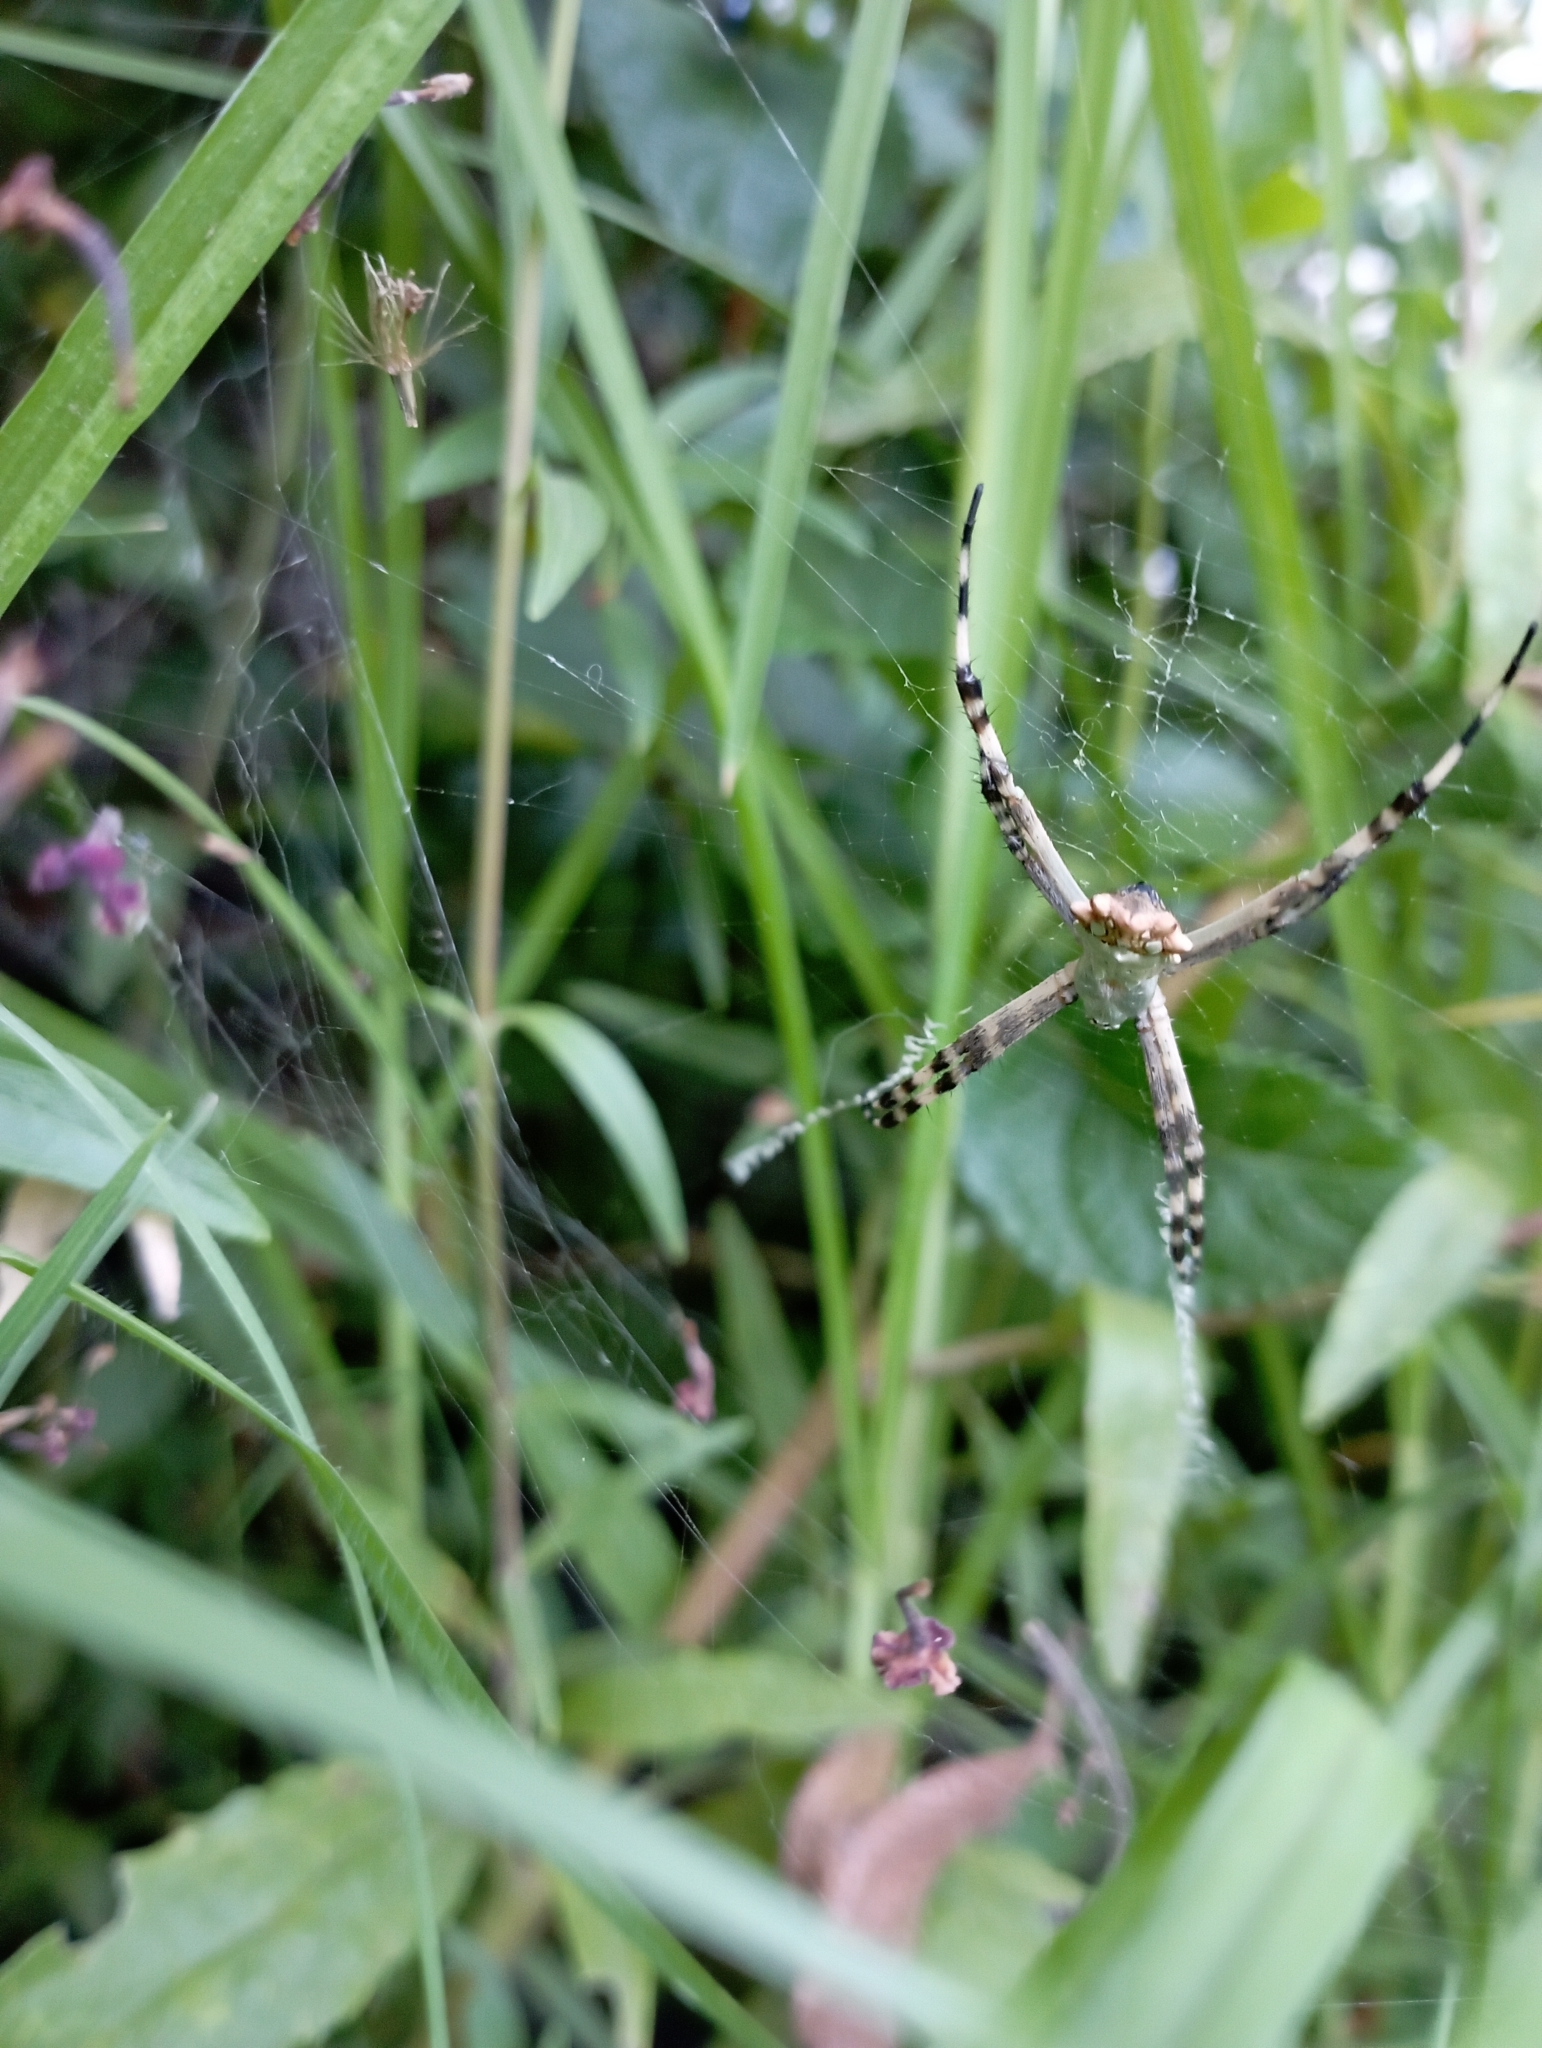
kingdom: Animalia
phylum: Arthropoda
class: Arachnida
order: Araneae
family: Araneidae
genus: Argiope
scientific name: Argiope argentata
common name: Orb weavers
